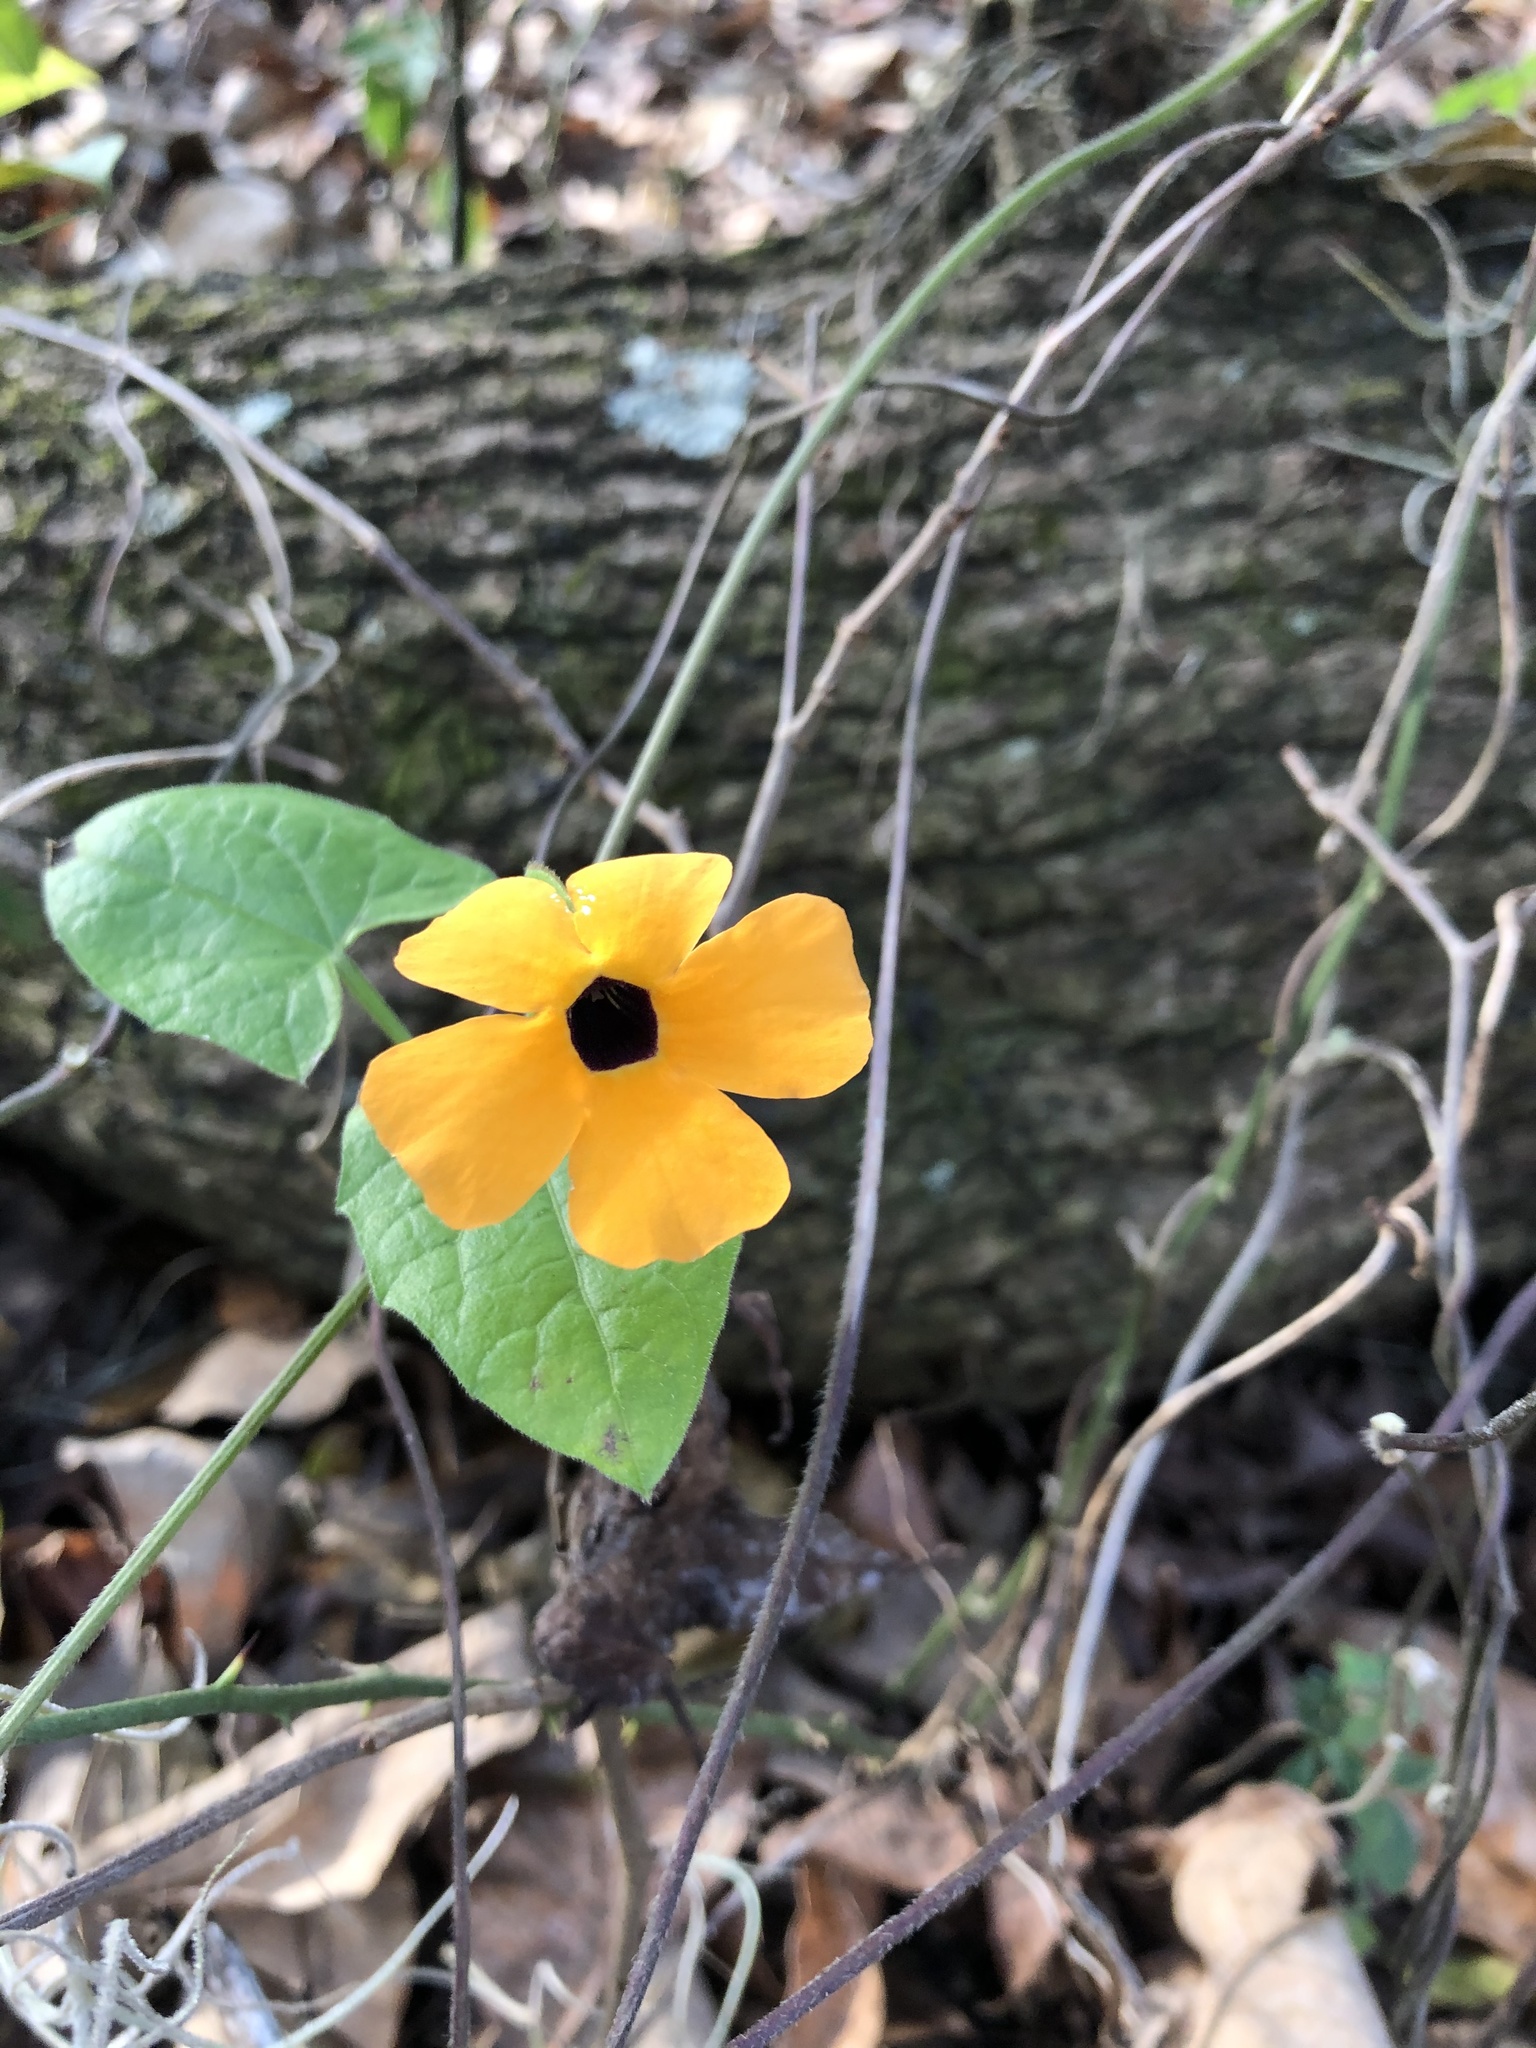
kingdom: Plantae
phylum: Tracheophyta
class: Magnoliopsida
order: Lamiales
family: Acanthaceae
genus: Thunbergia
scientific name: Thunbergia alata
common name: Blackeyed susan vine
